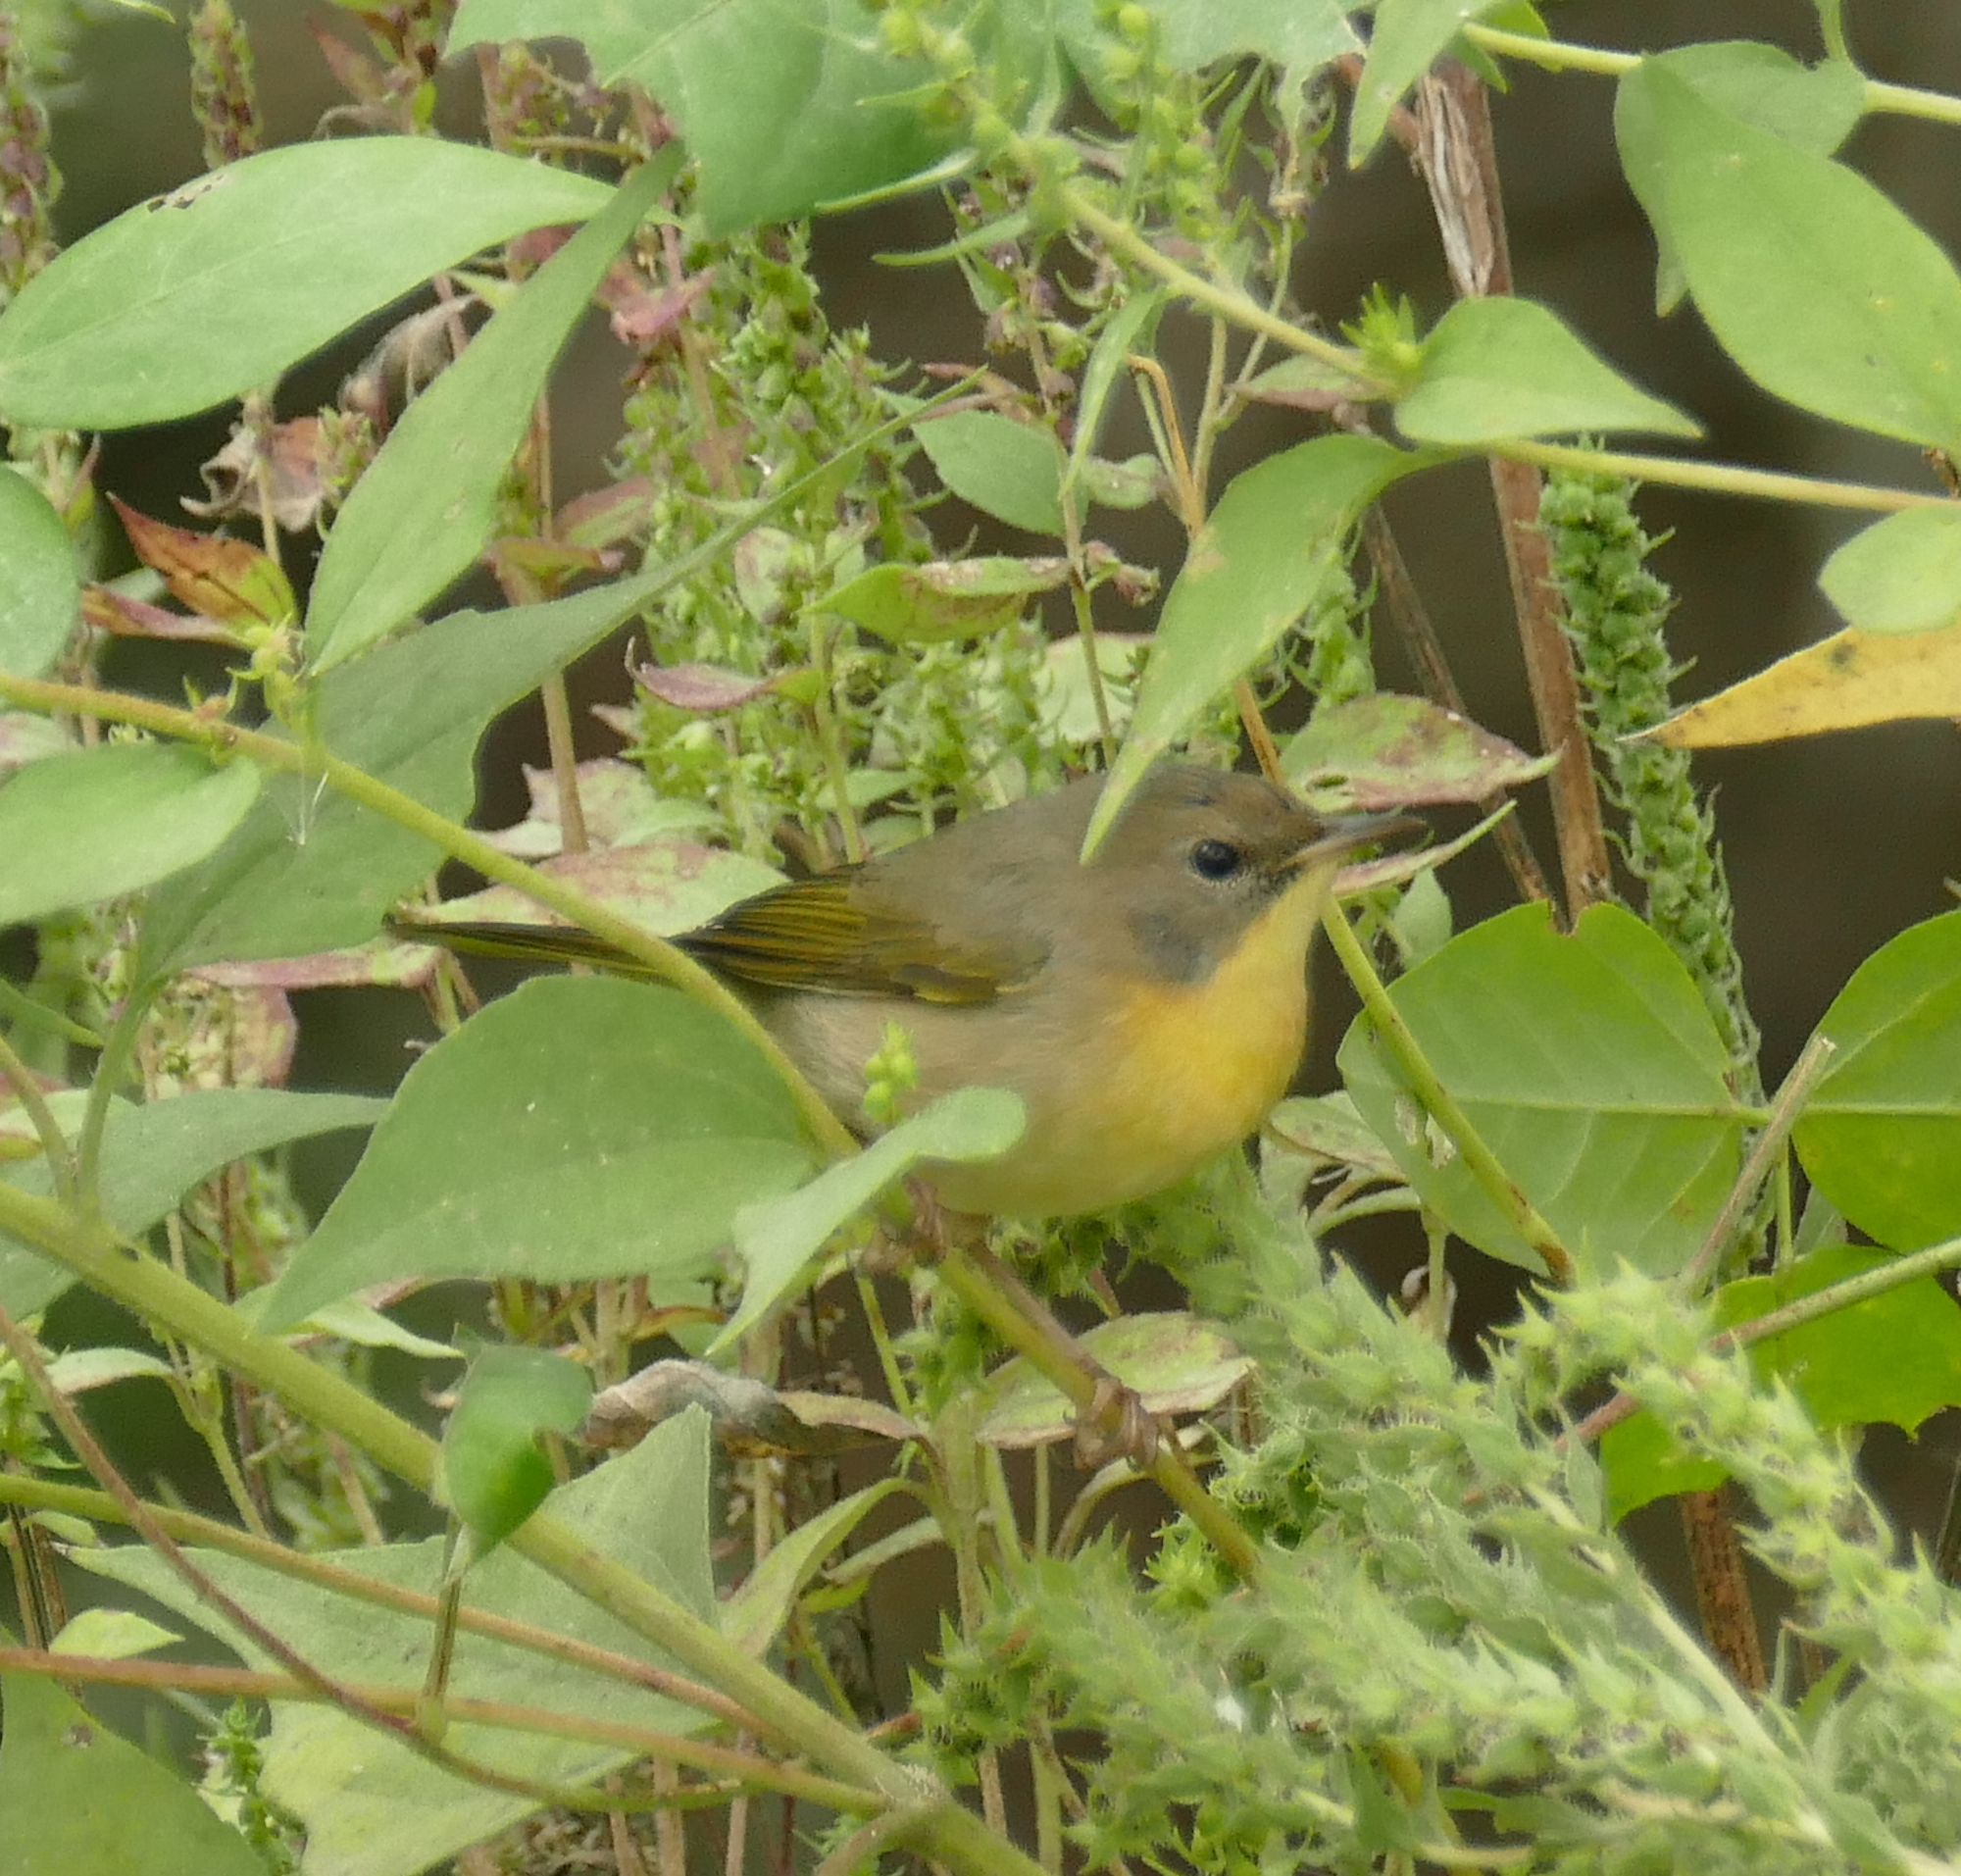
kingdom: Animalia
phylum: Chordata
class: Aves
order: Passeriformes
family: Parulidae
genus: Geothlypis
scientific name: Geothlypis trichas
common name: Common yellowthroat
